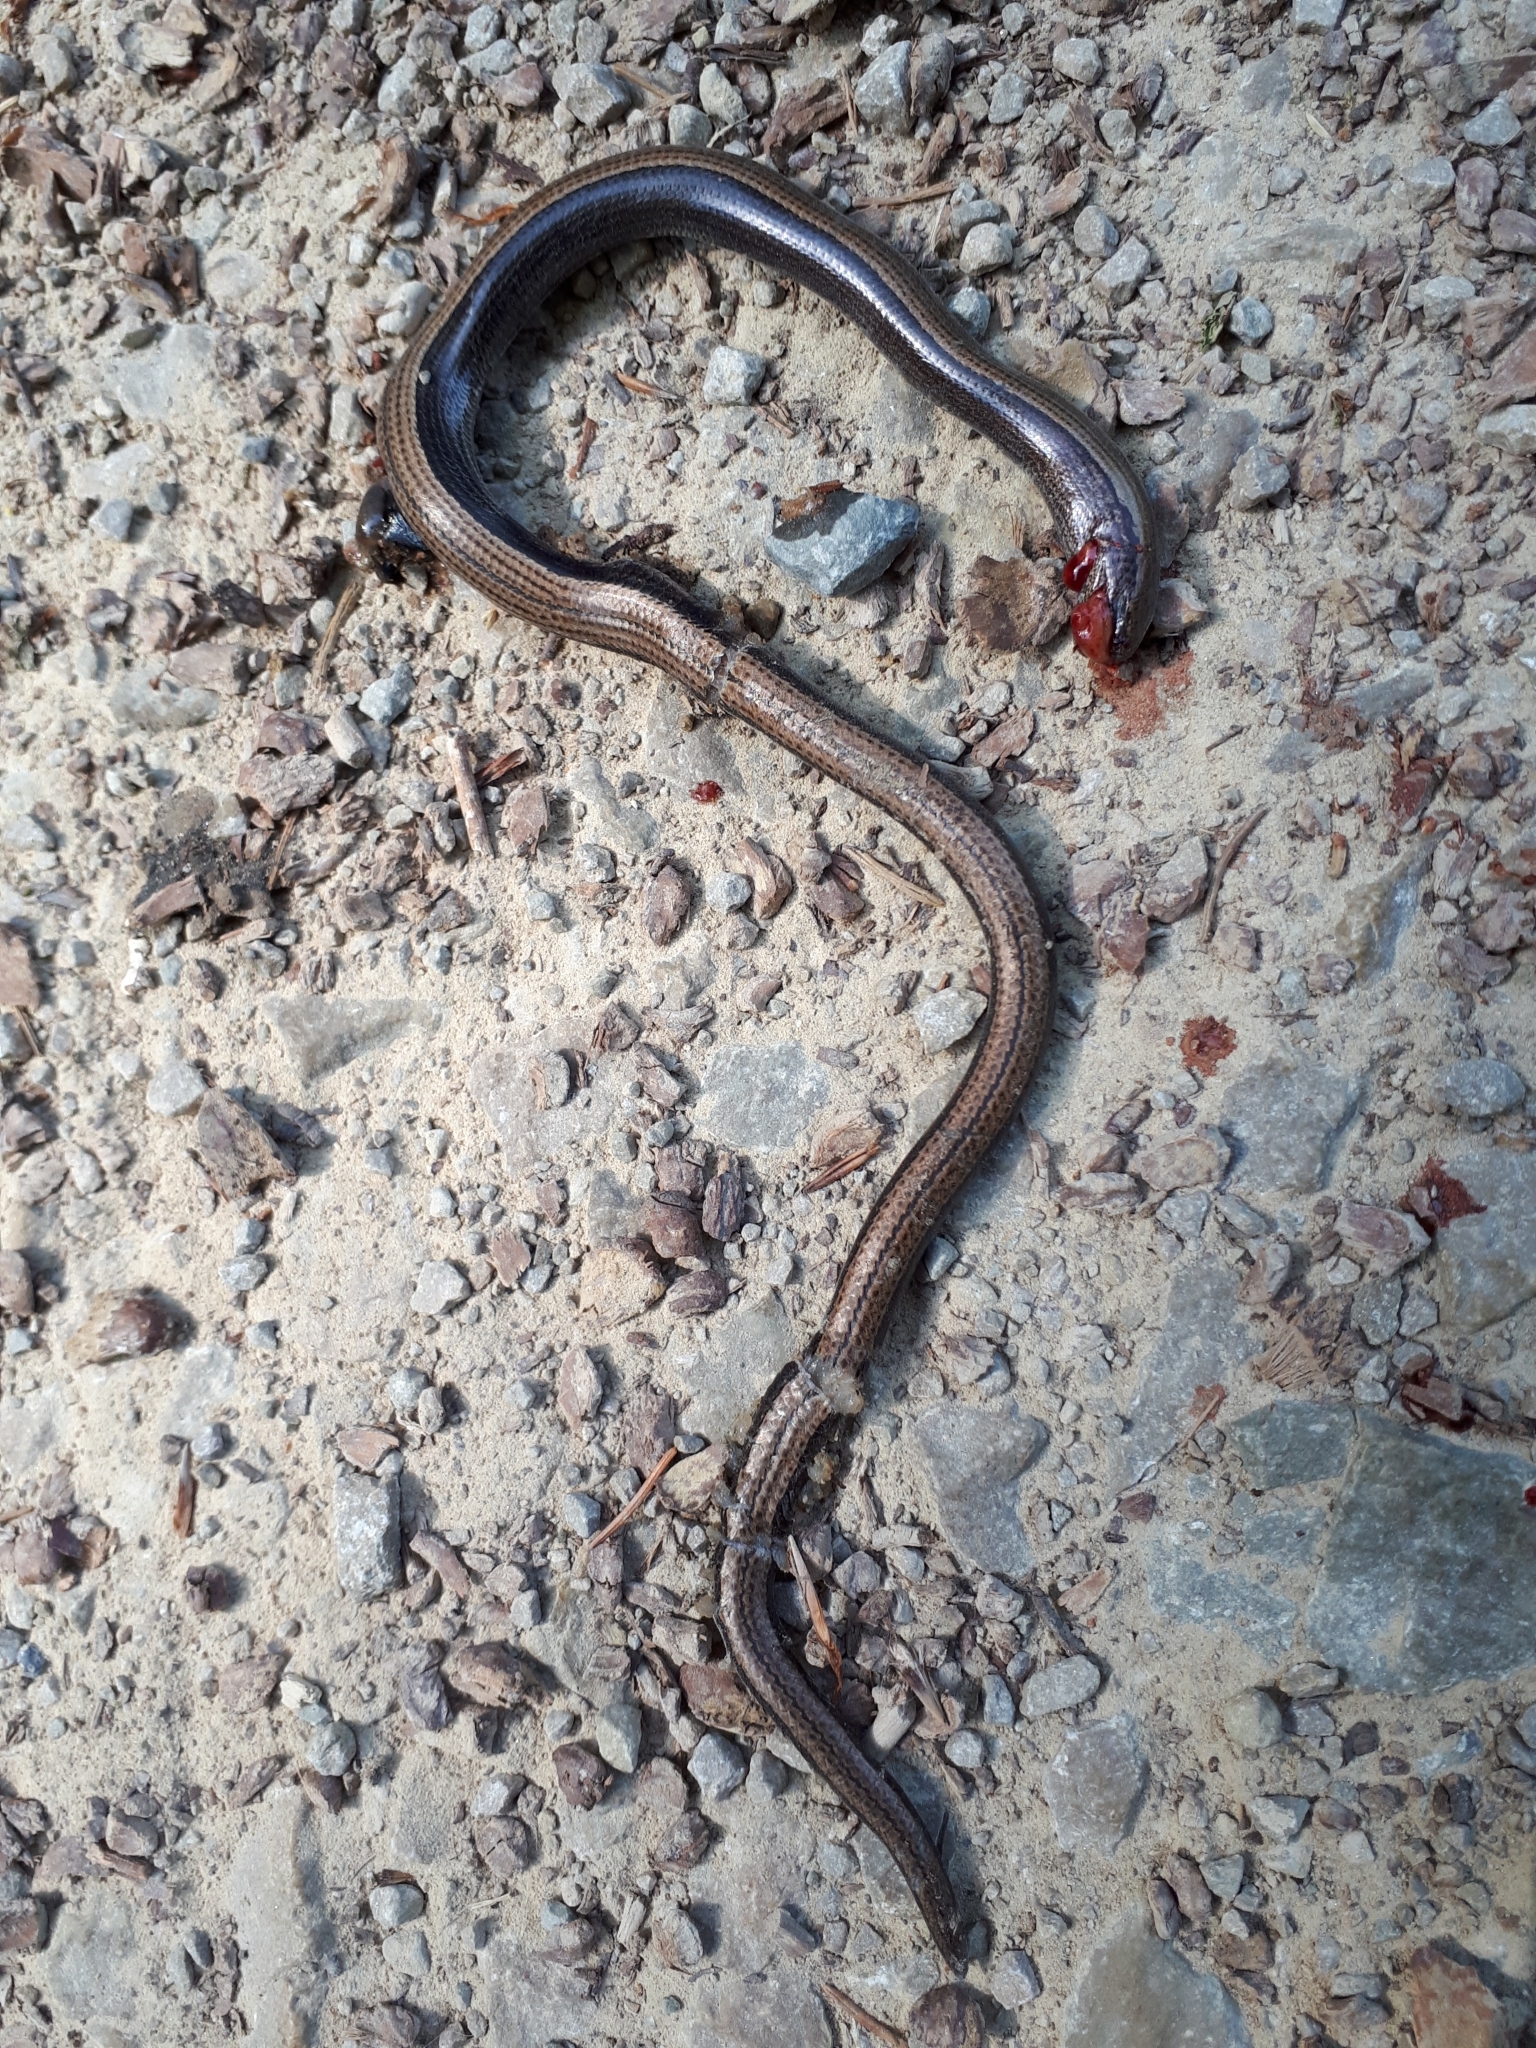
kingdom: Animalia
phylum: Chordata
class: Squamata
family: Anguidae
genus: Anguis
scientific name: Anguis fragilis
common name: Slow worm
